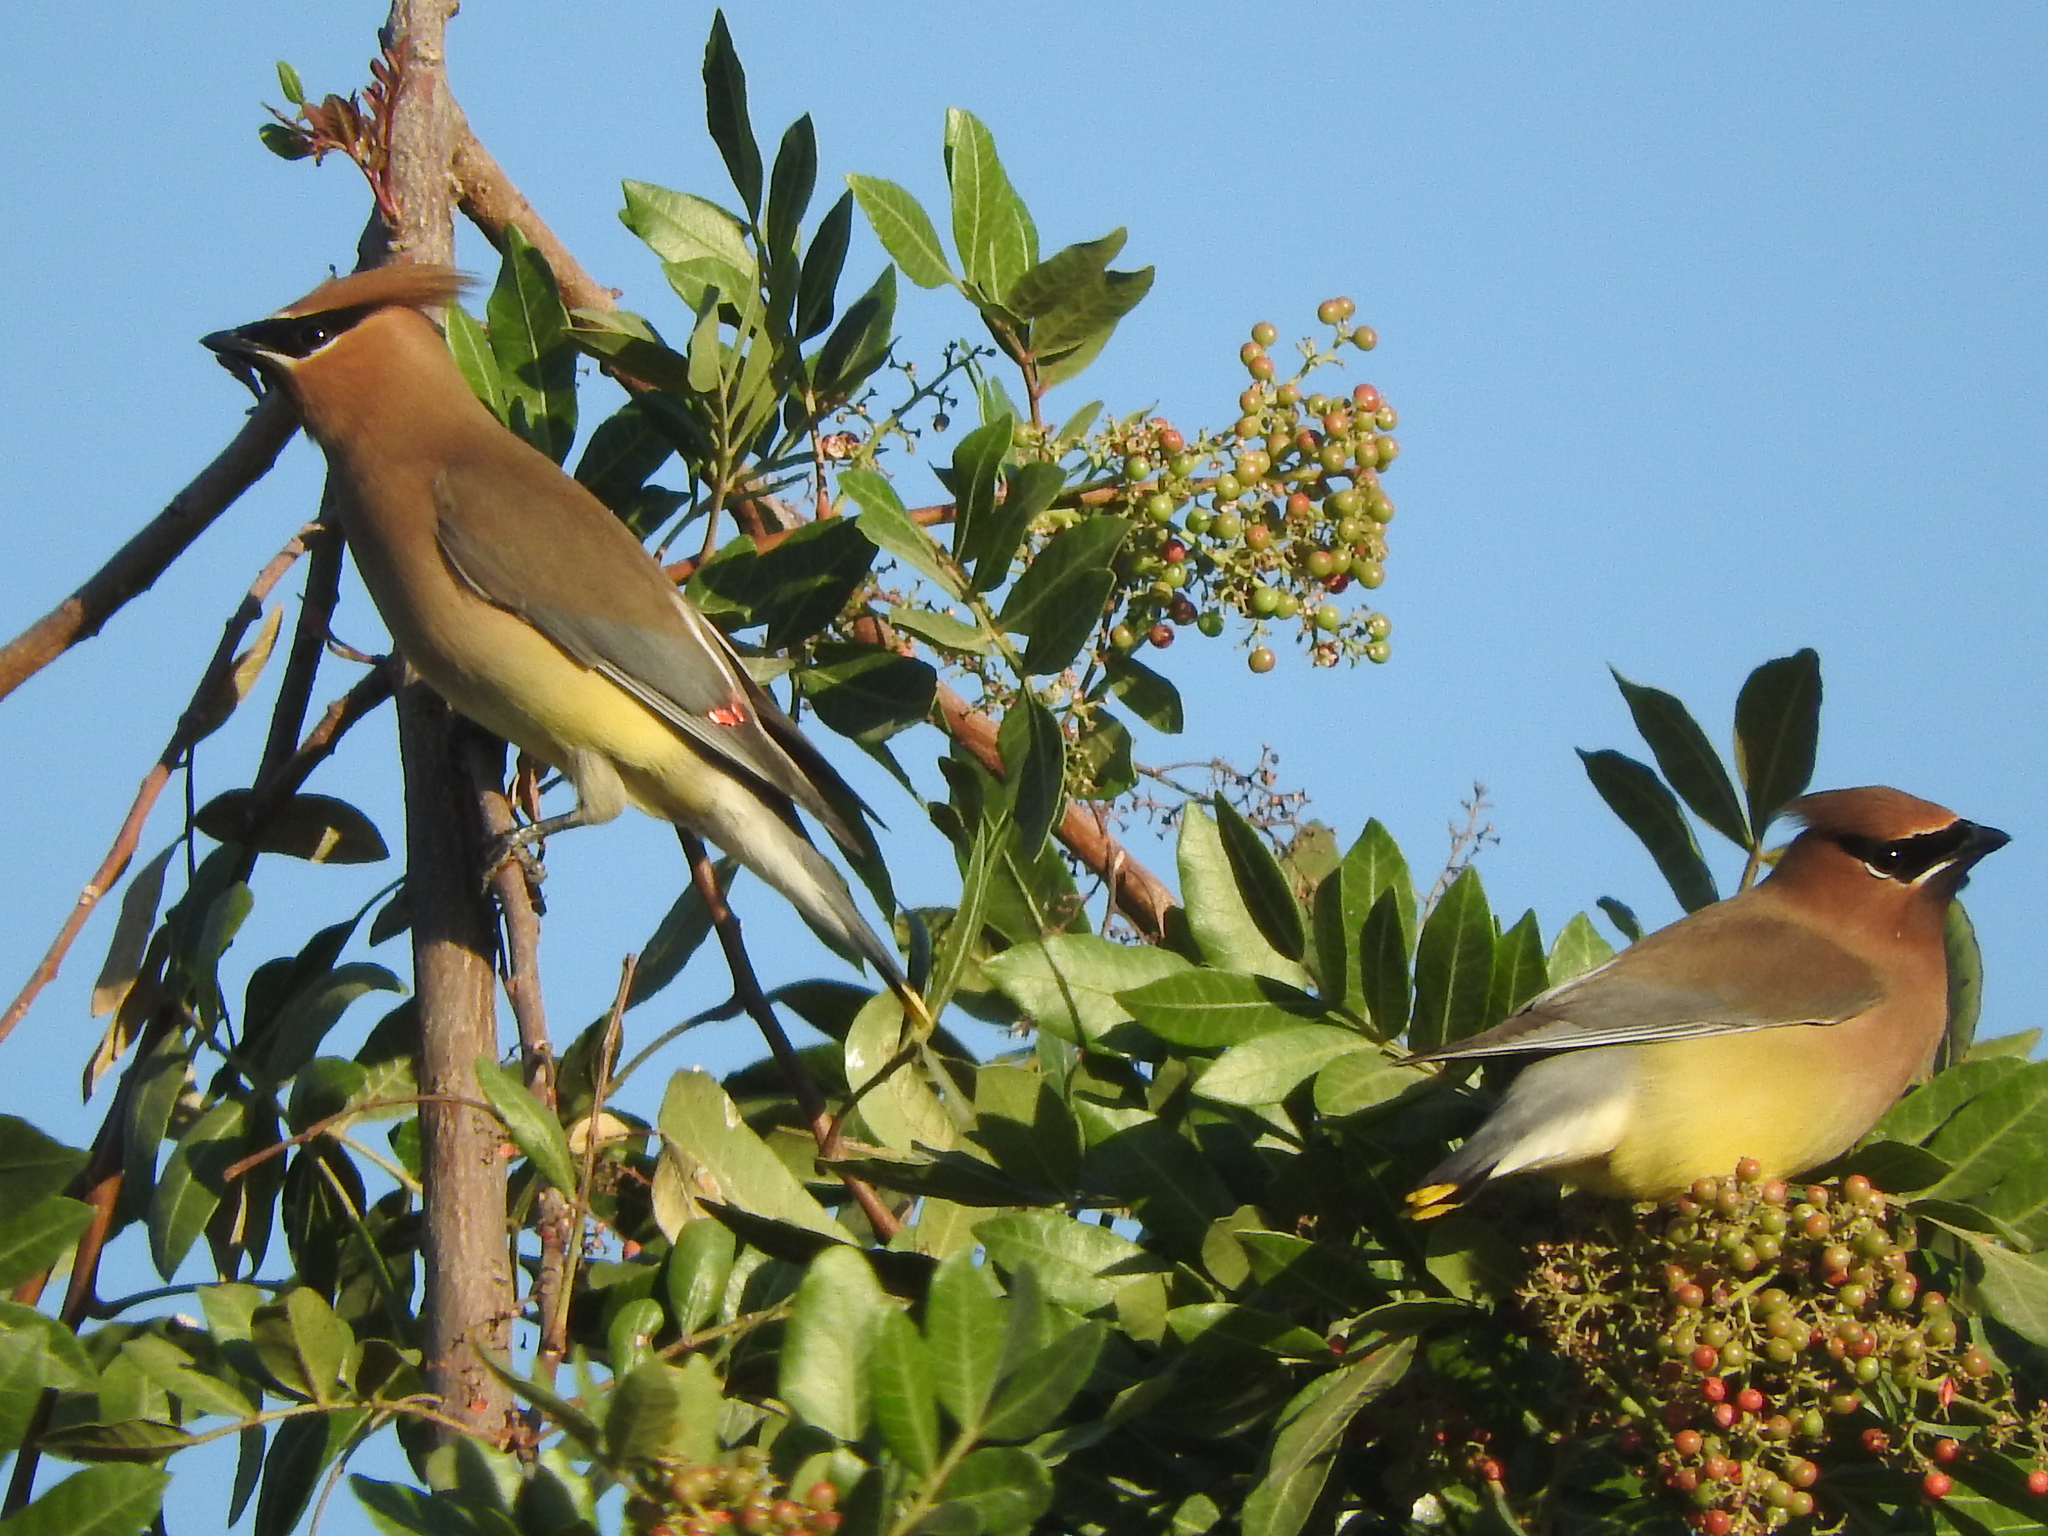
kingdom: Animalia
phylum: Chordata
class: Aves
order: Passeriformes
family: Bombycillidae
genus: Bombycilla
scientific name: Bombycilla cedrorum
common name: Cedar waxwing
